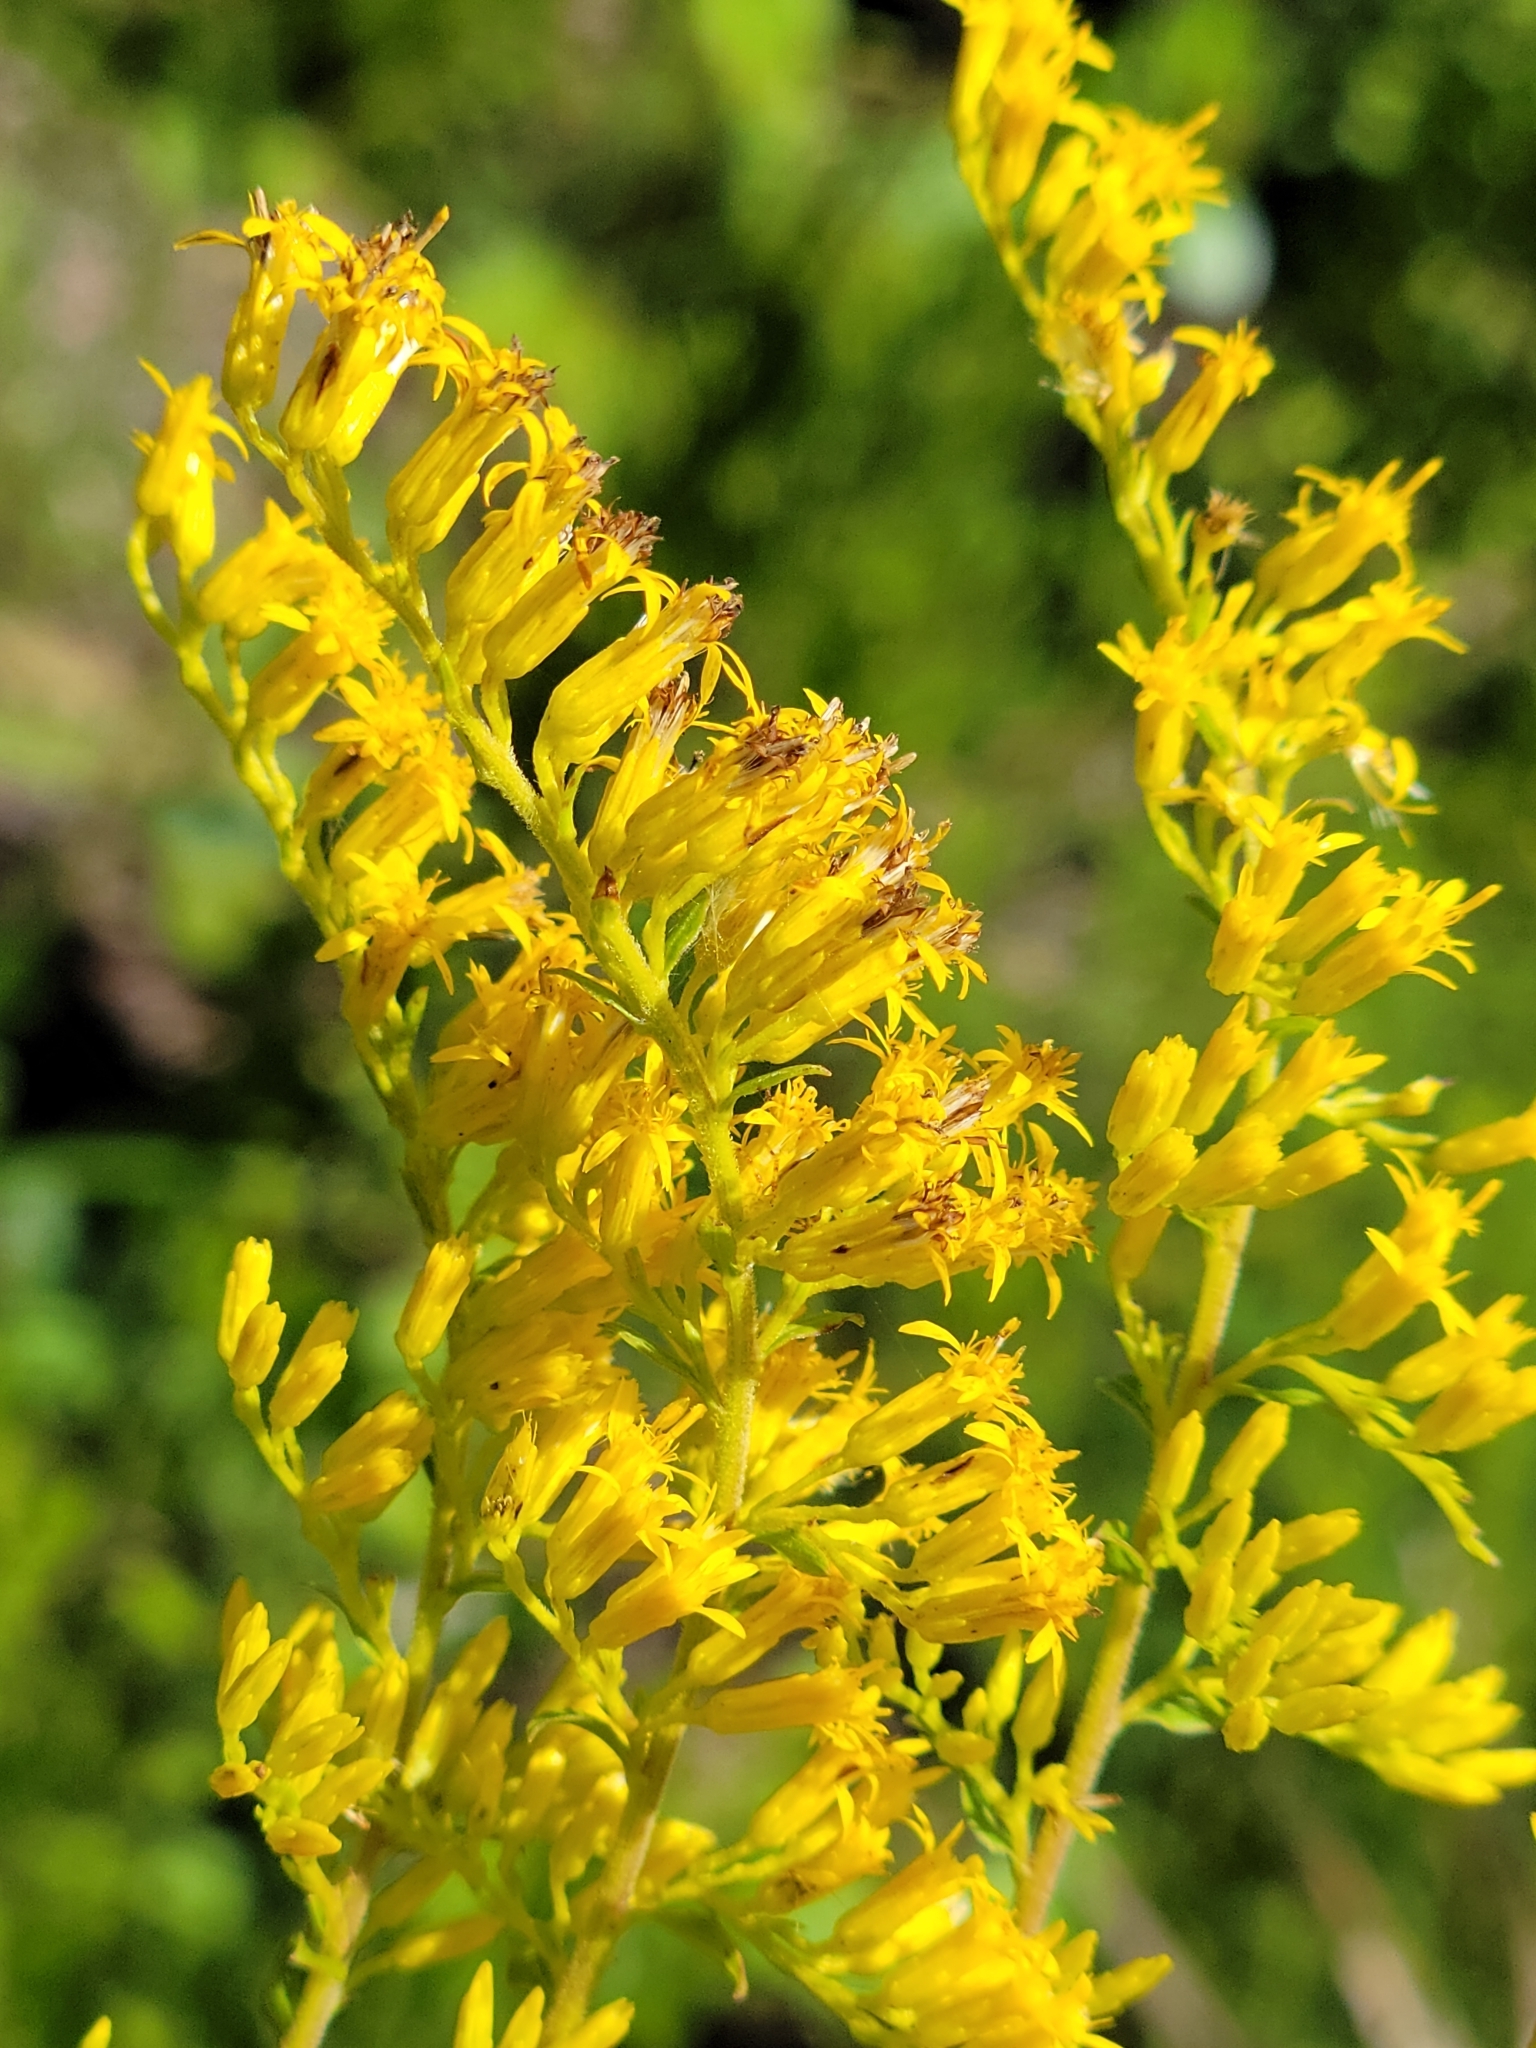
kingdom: Plantae
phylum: Tracheophyta
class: Magnoliopsida
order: Asterales
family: Asteraceae
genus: Solidago
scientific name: Solidago chapmanii
